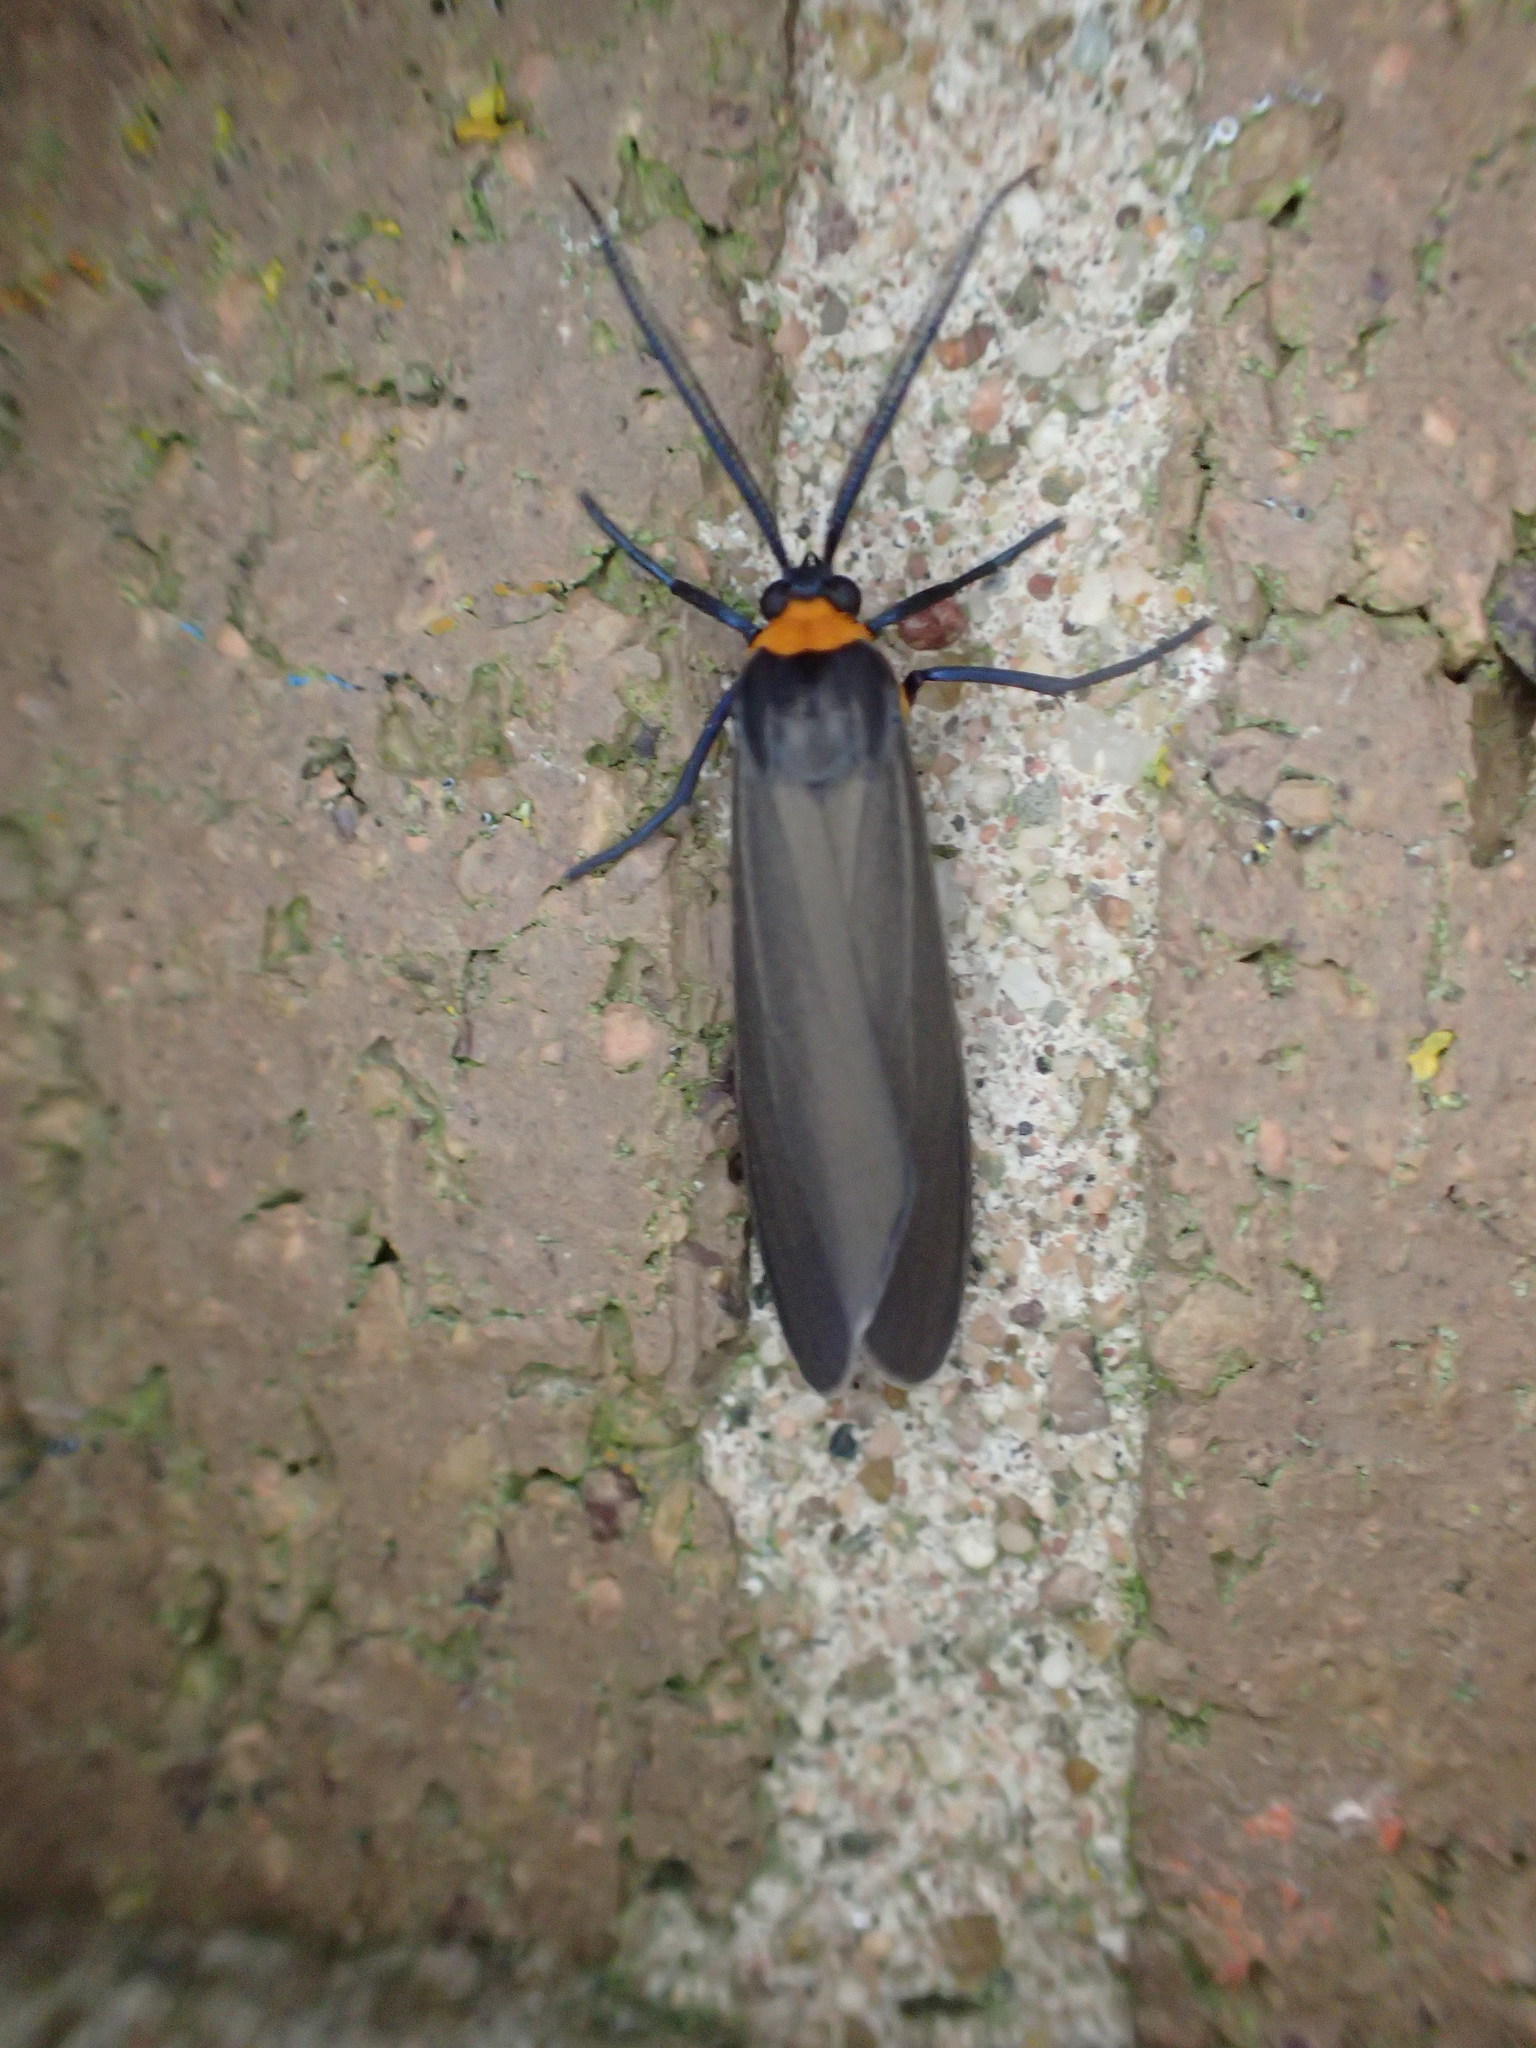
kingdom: Animalia
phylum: Arthropoda
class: Insecta
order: Lepidoptera
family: Erebidae
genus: Cisseps
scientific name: Cisseps fulvicollis
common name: Yellow-collared scape moth
